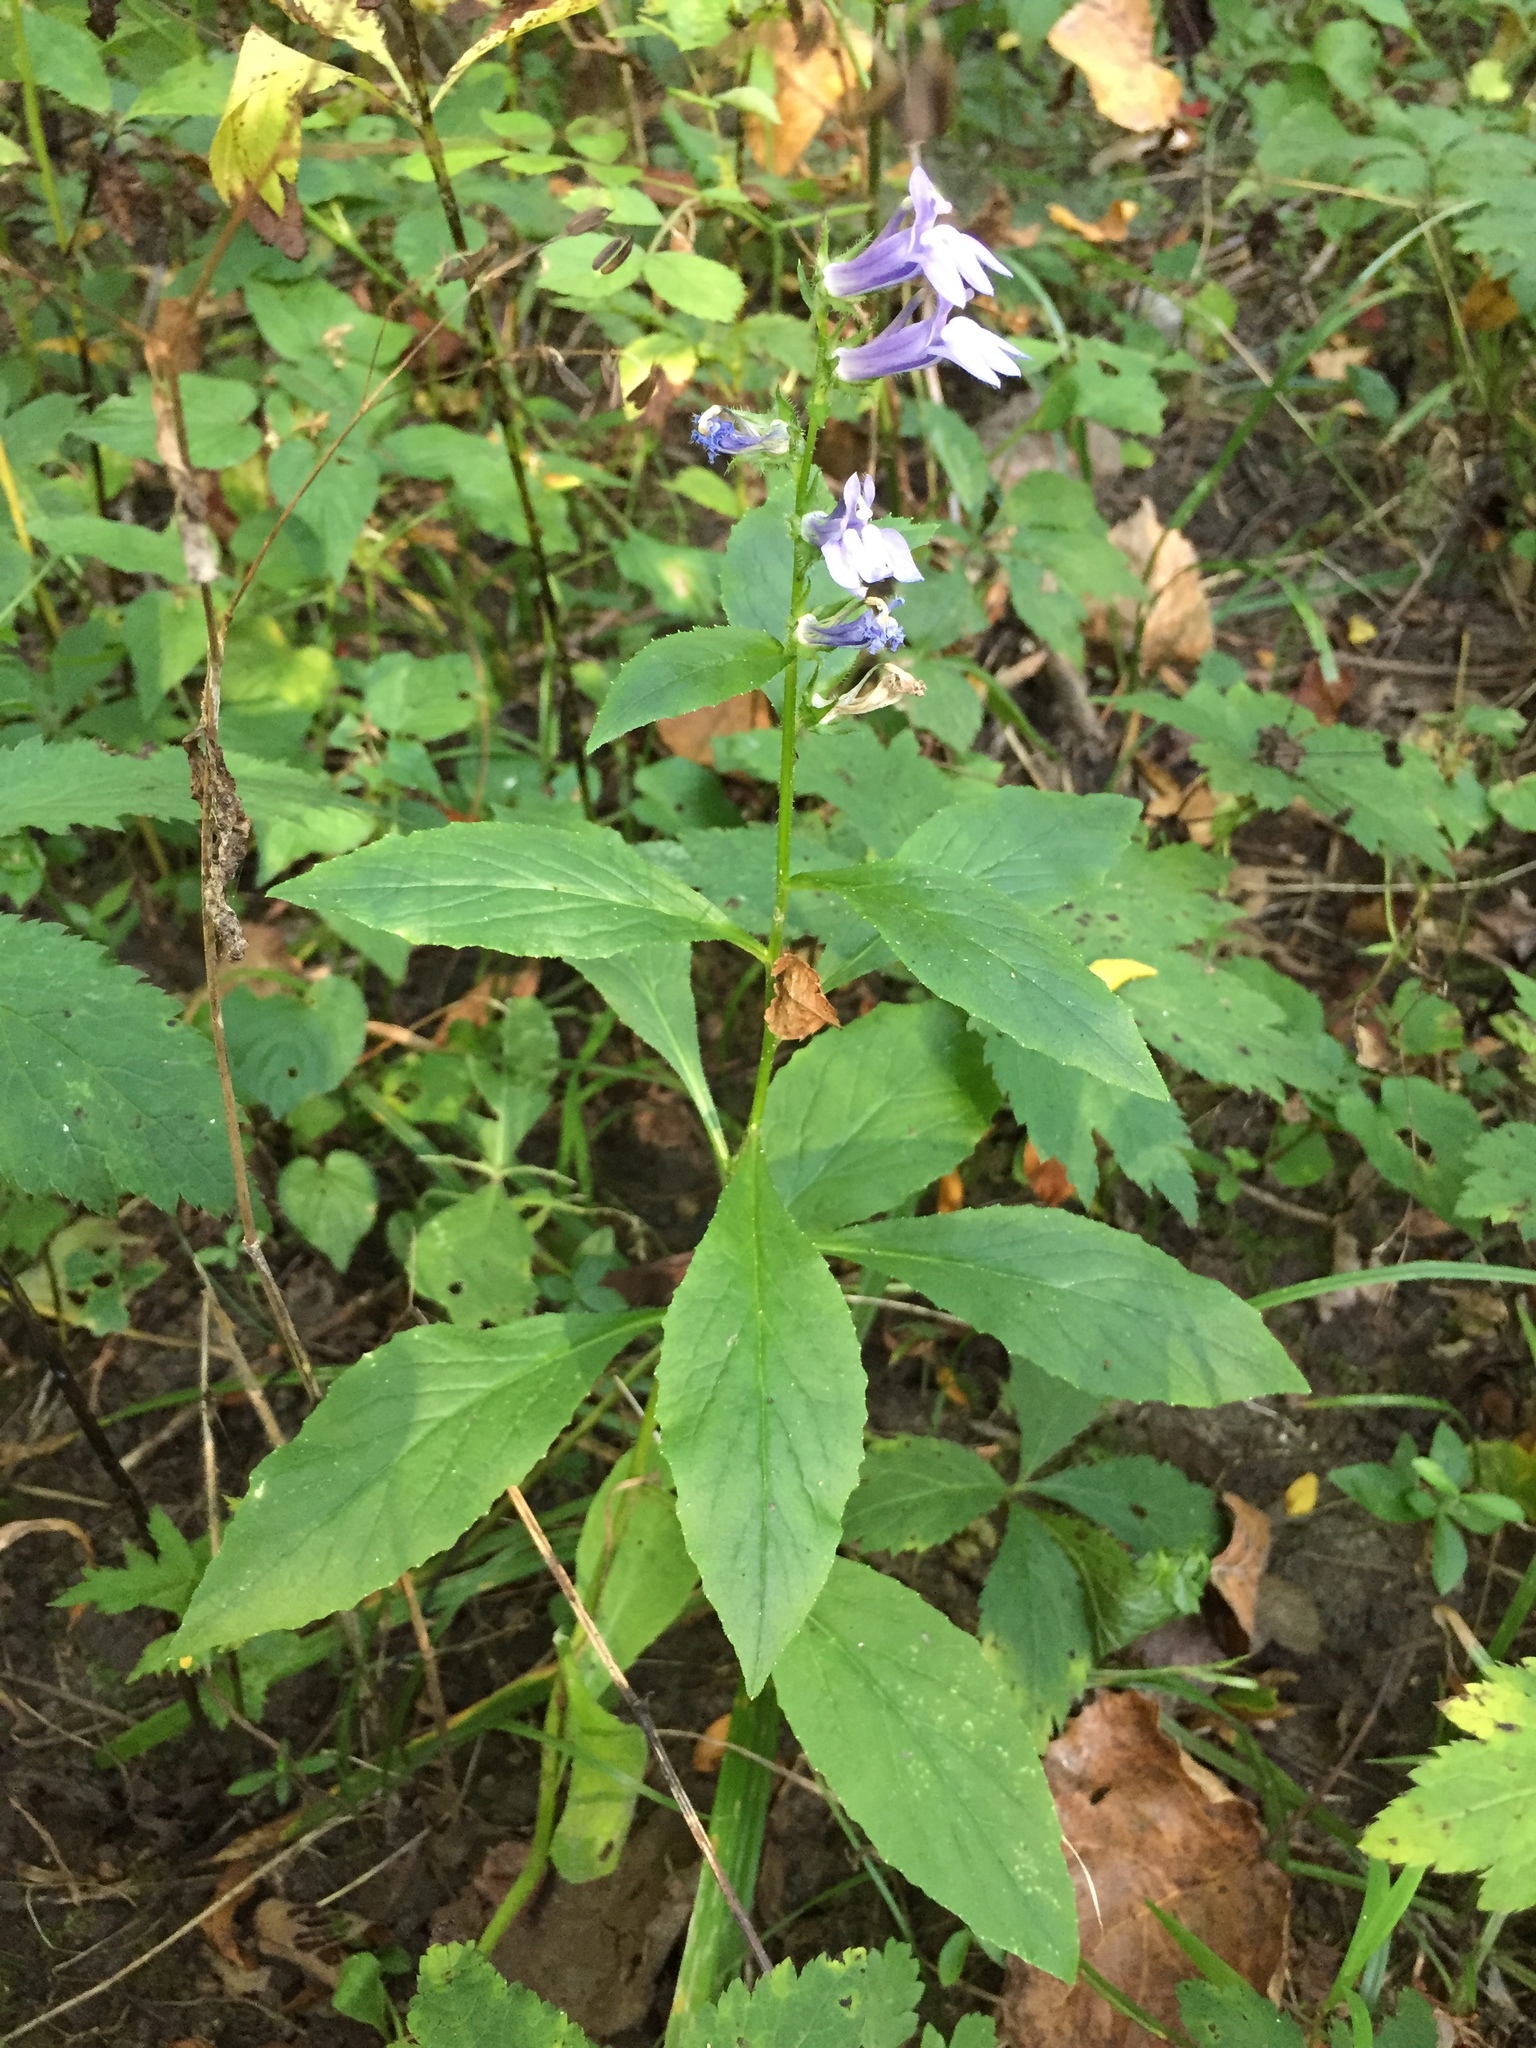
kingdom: Plantae
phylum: Tracheophyta
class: Magnoliopsida
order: Asterales
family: Campanulaceae
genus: Lobelia
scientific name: Lobelia siphilitica
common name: Great lobelia
